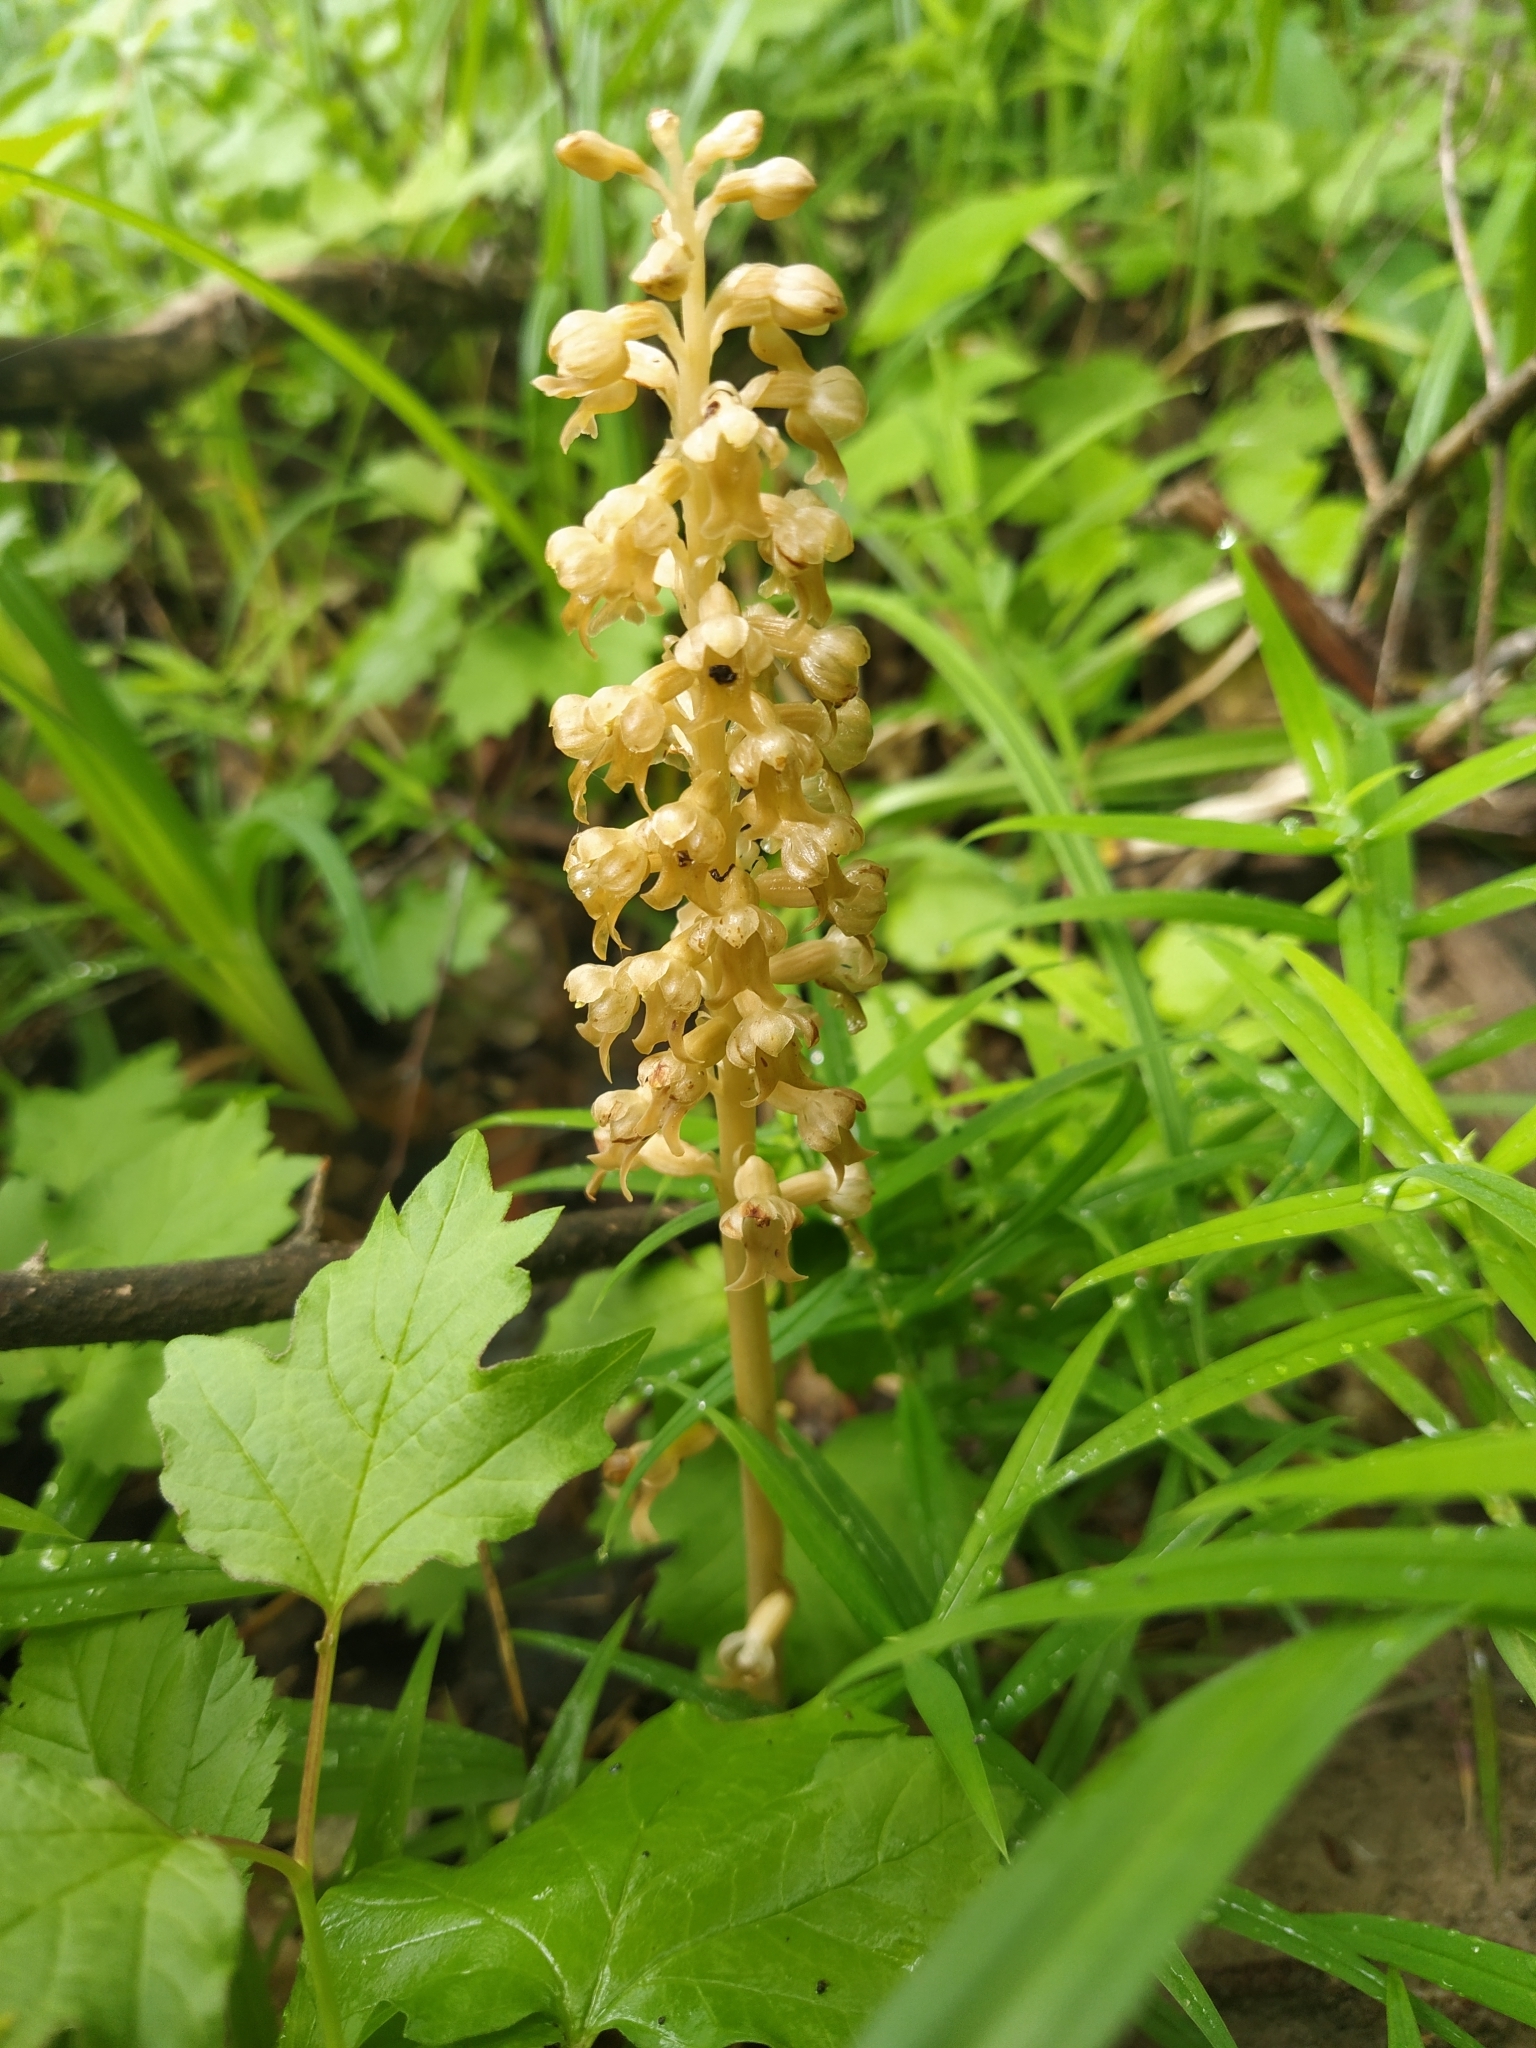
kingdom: Plantae
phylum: Tracheophyta
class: Liliopsida
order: Asparagales
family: Orchidaceae
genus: Neottia
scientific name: Neottia nidus-avis
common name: Bird's-nest orchid
